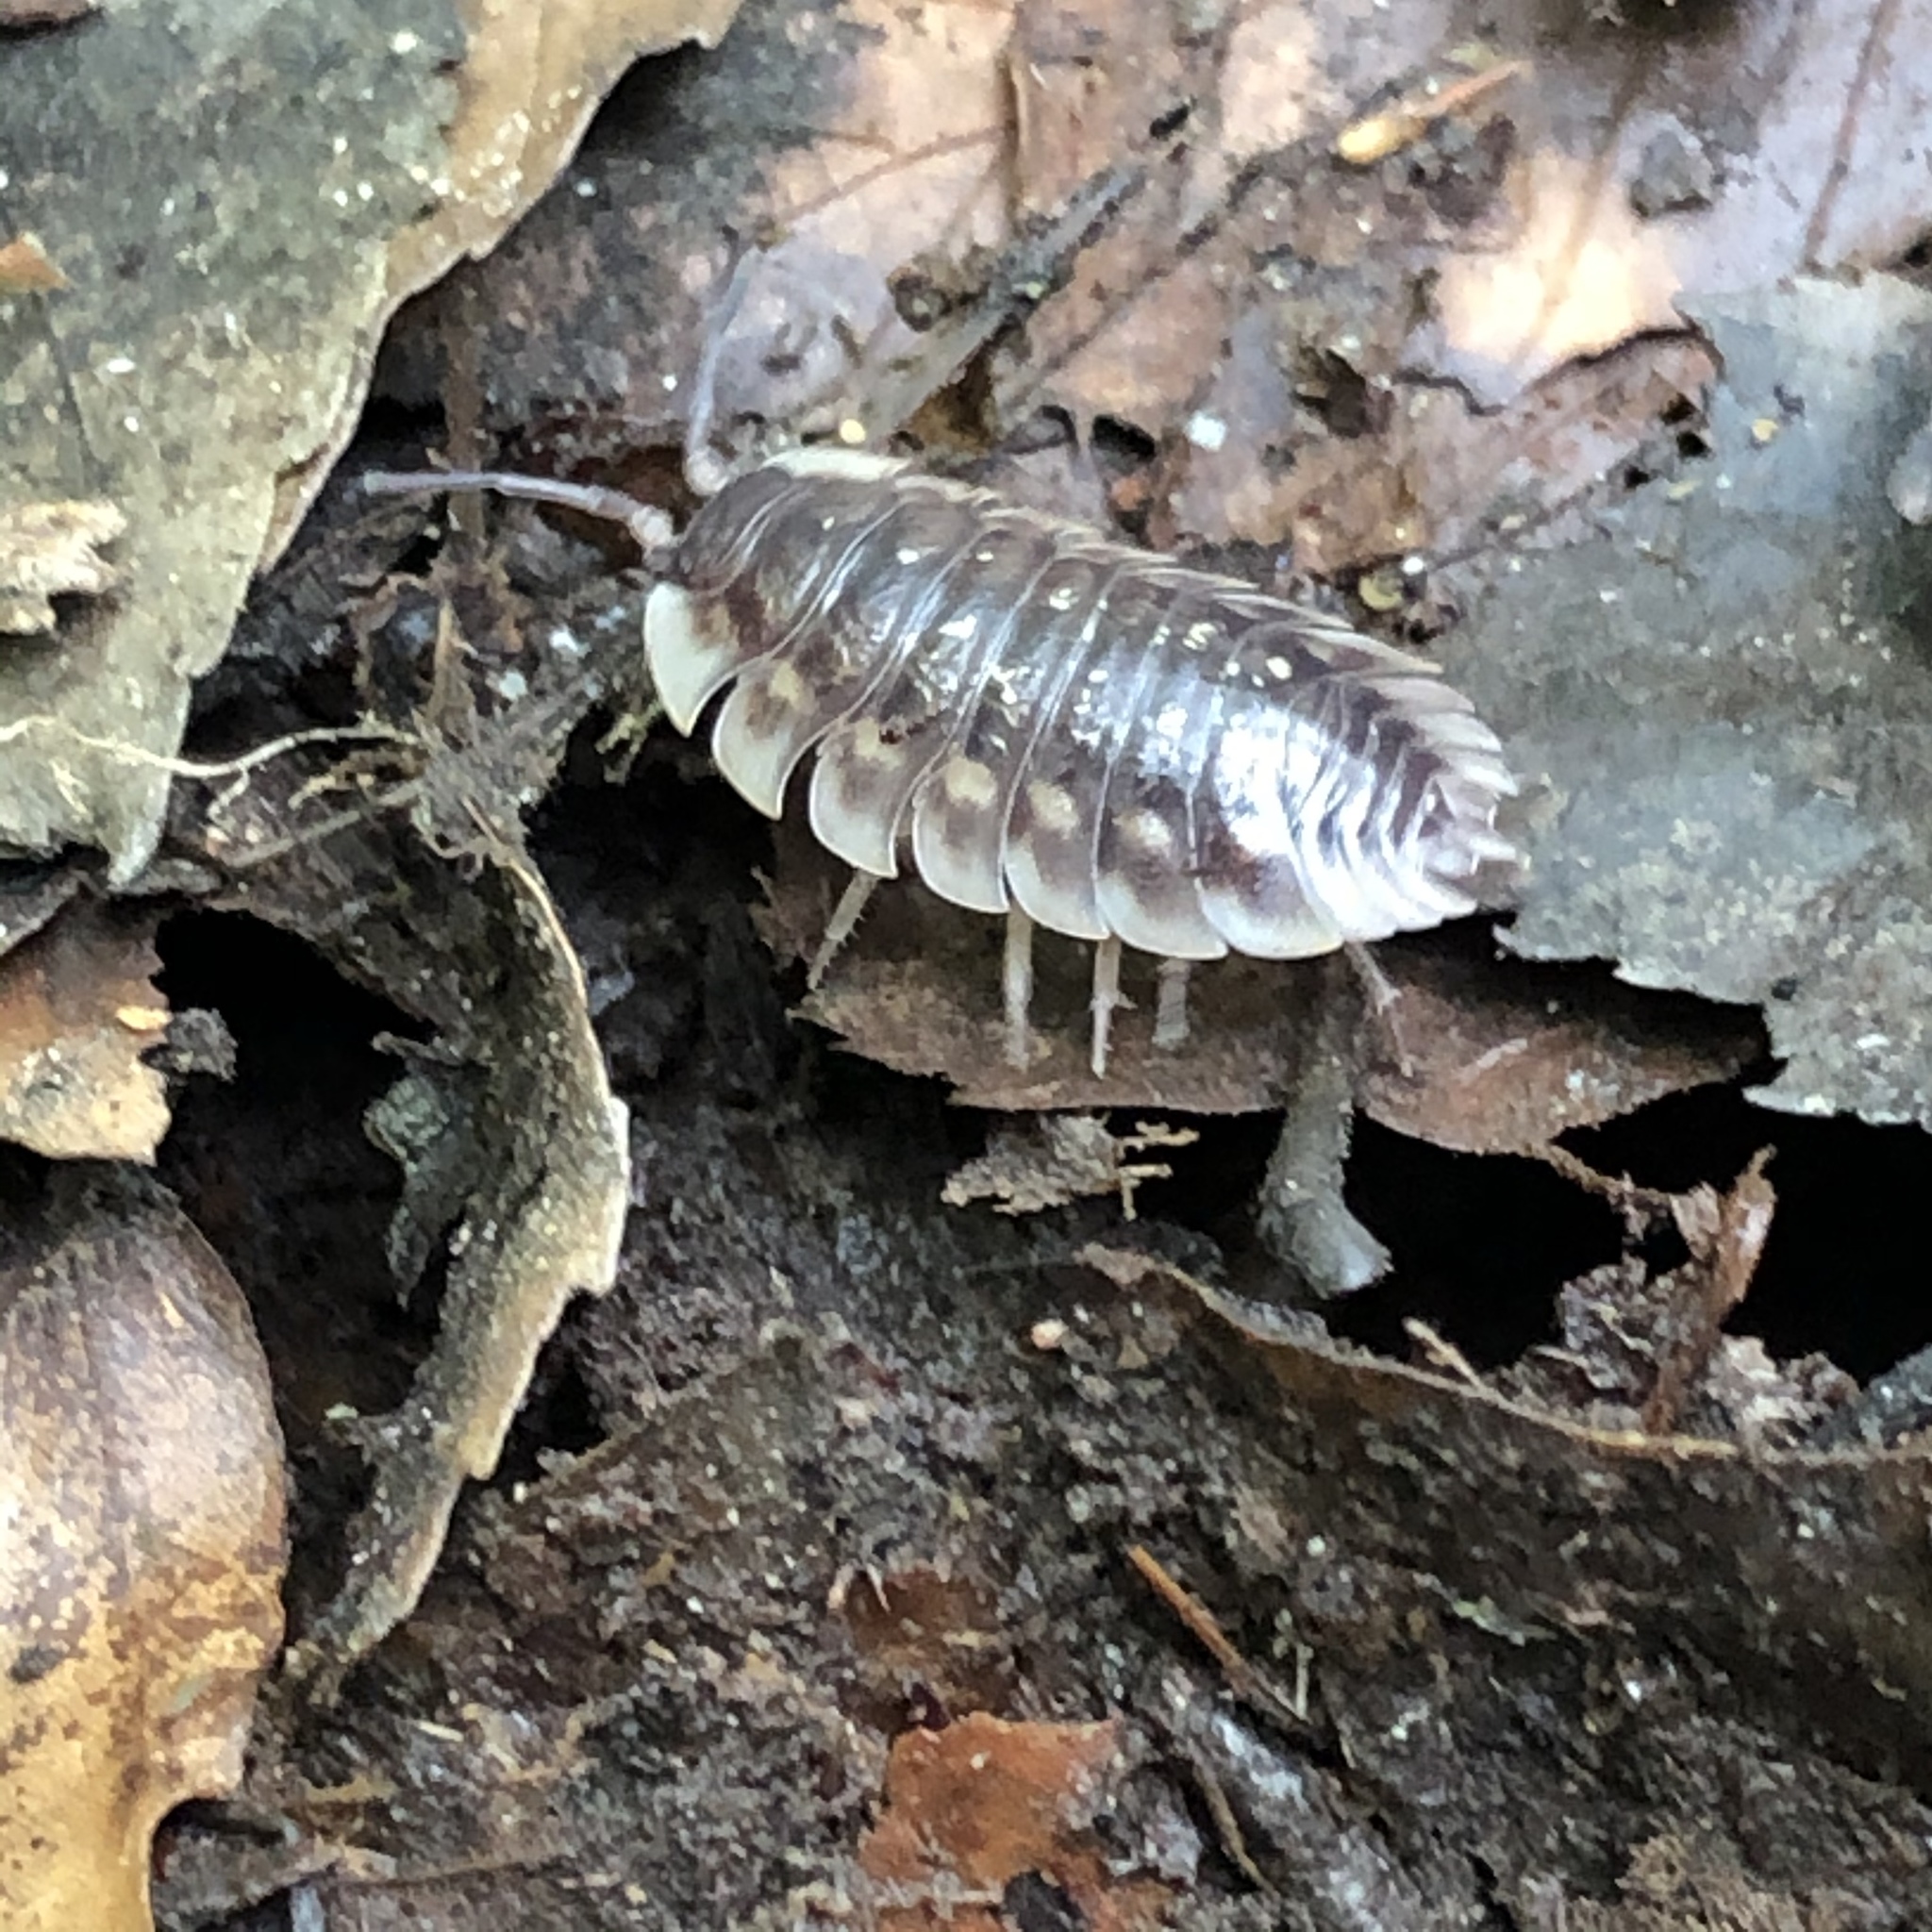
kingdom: Animalia
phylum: Arthropoda
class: Malacostraca
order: Isopoda
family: Oniscidae
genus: Oniscus
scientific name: Oniscus asellus
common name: Common shiny woodlouse
